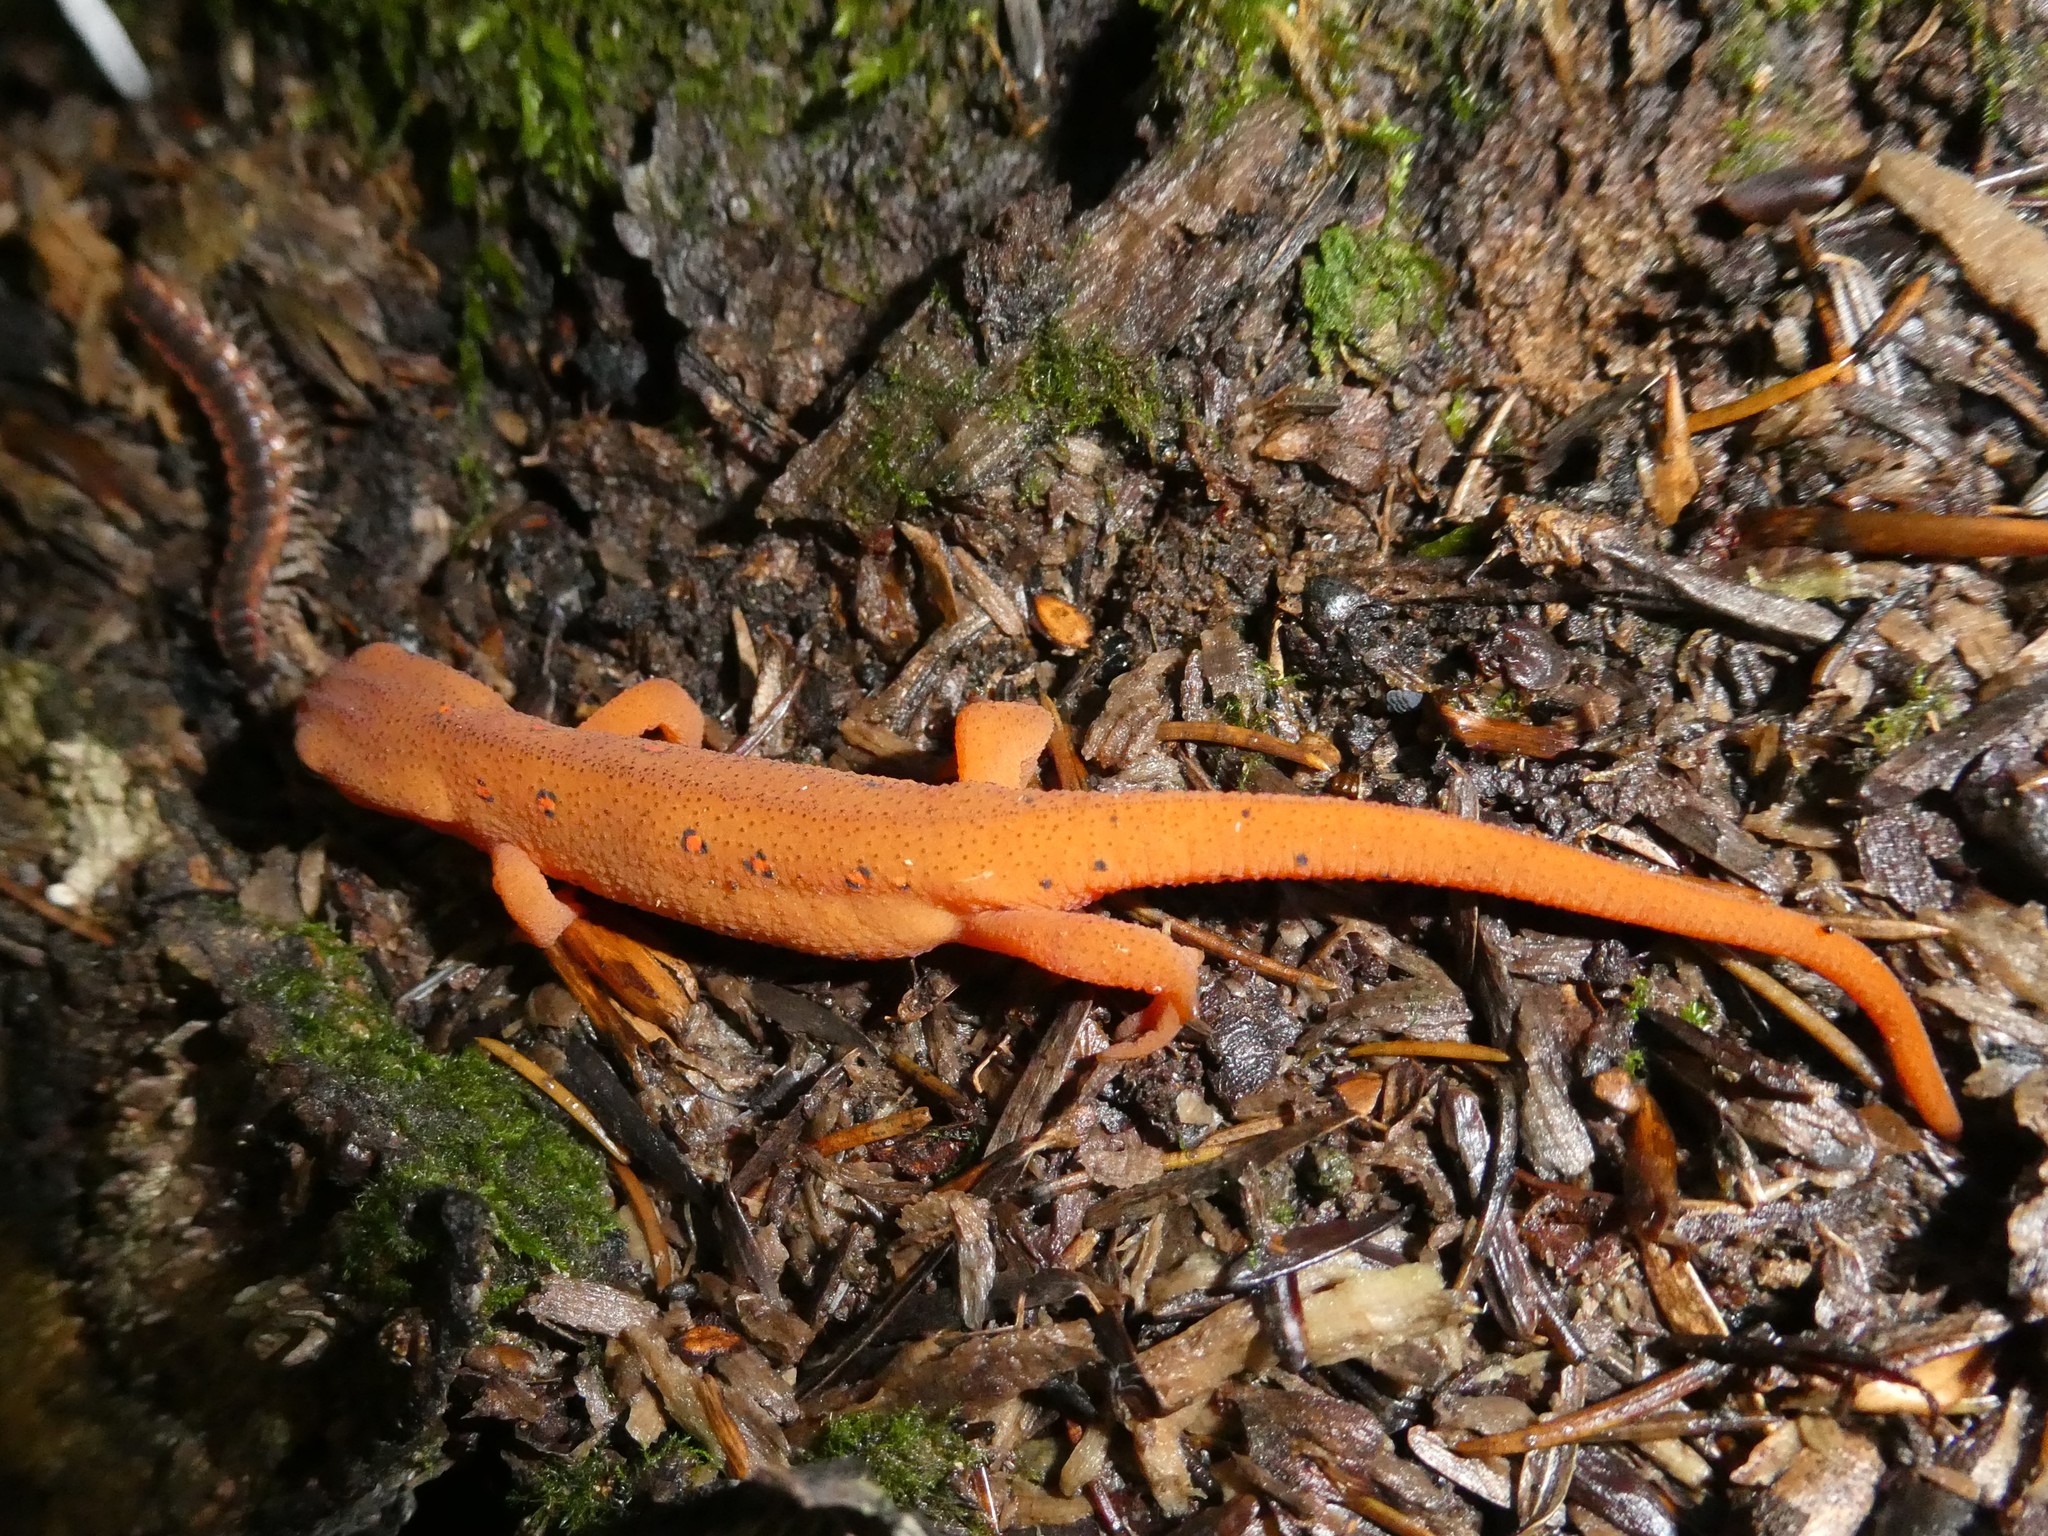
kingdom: Animalia
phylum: Chordata
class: Amphibia
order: Caudata
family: Salamandridae
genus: Notophthalmus
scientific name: Notophthalmus viridescens
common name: Eastern newt
